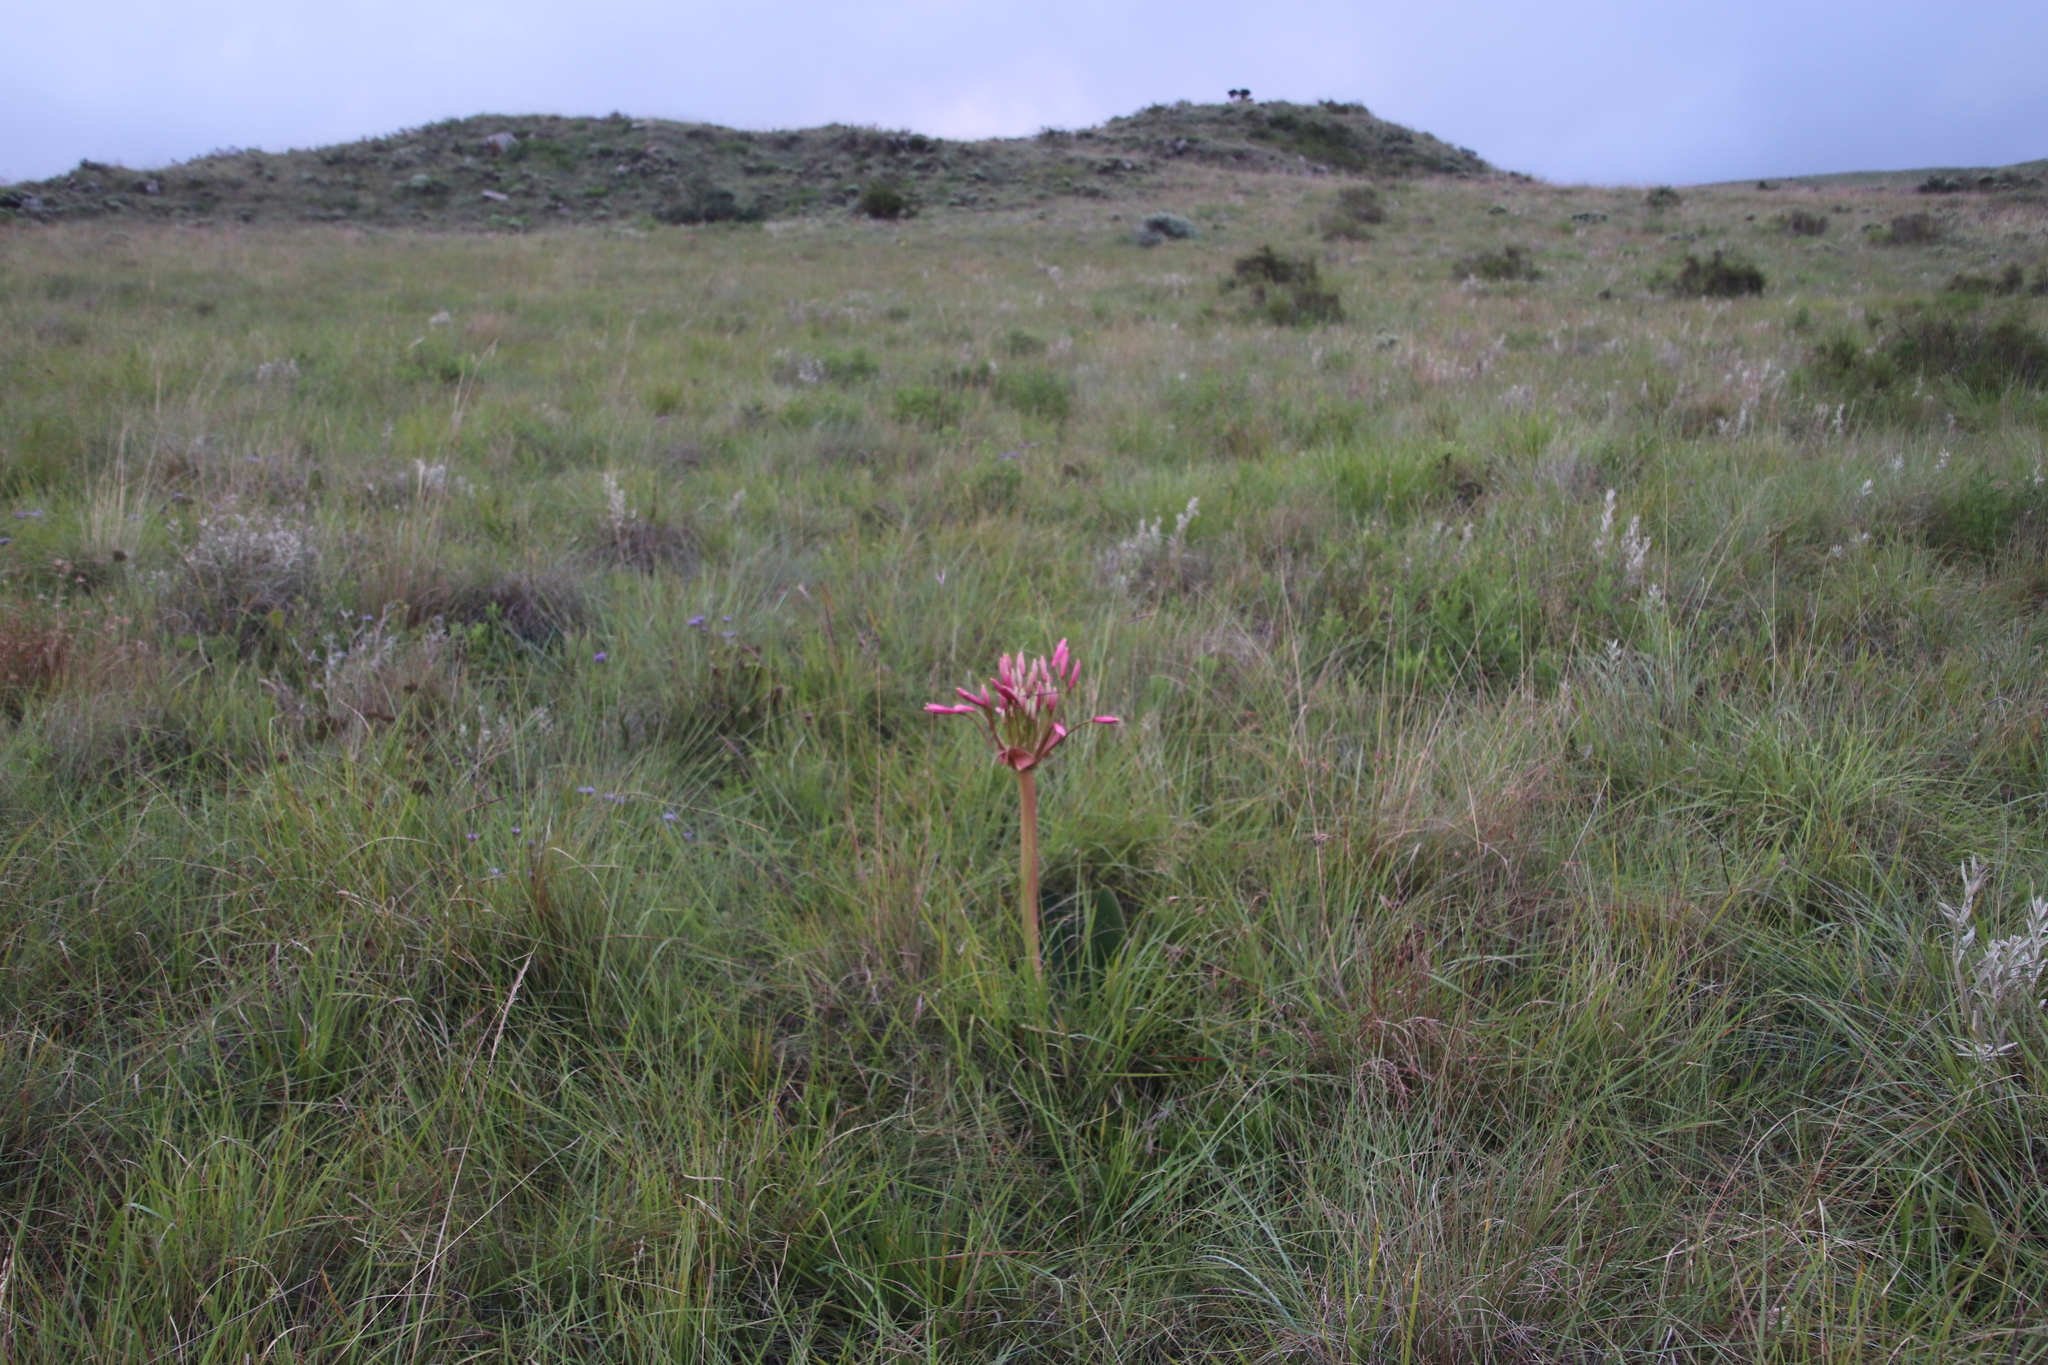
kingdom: Plantae
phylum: Tracheophyta
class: Liliopsida
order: Asparagales
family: Amaryllidaceae
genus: Brunsvigia
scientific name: Brunsvigia radulosa
